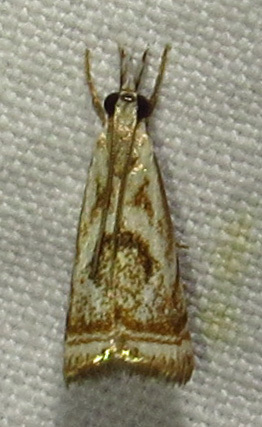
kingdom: Animalia
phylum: Arthropoda
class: Insecta
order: Lepidoptera
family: Crambidae
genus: Microcrambus
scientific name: Microcrambus elegans
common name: Elegant grass-veneer
